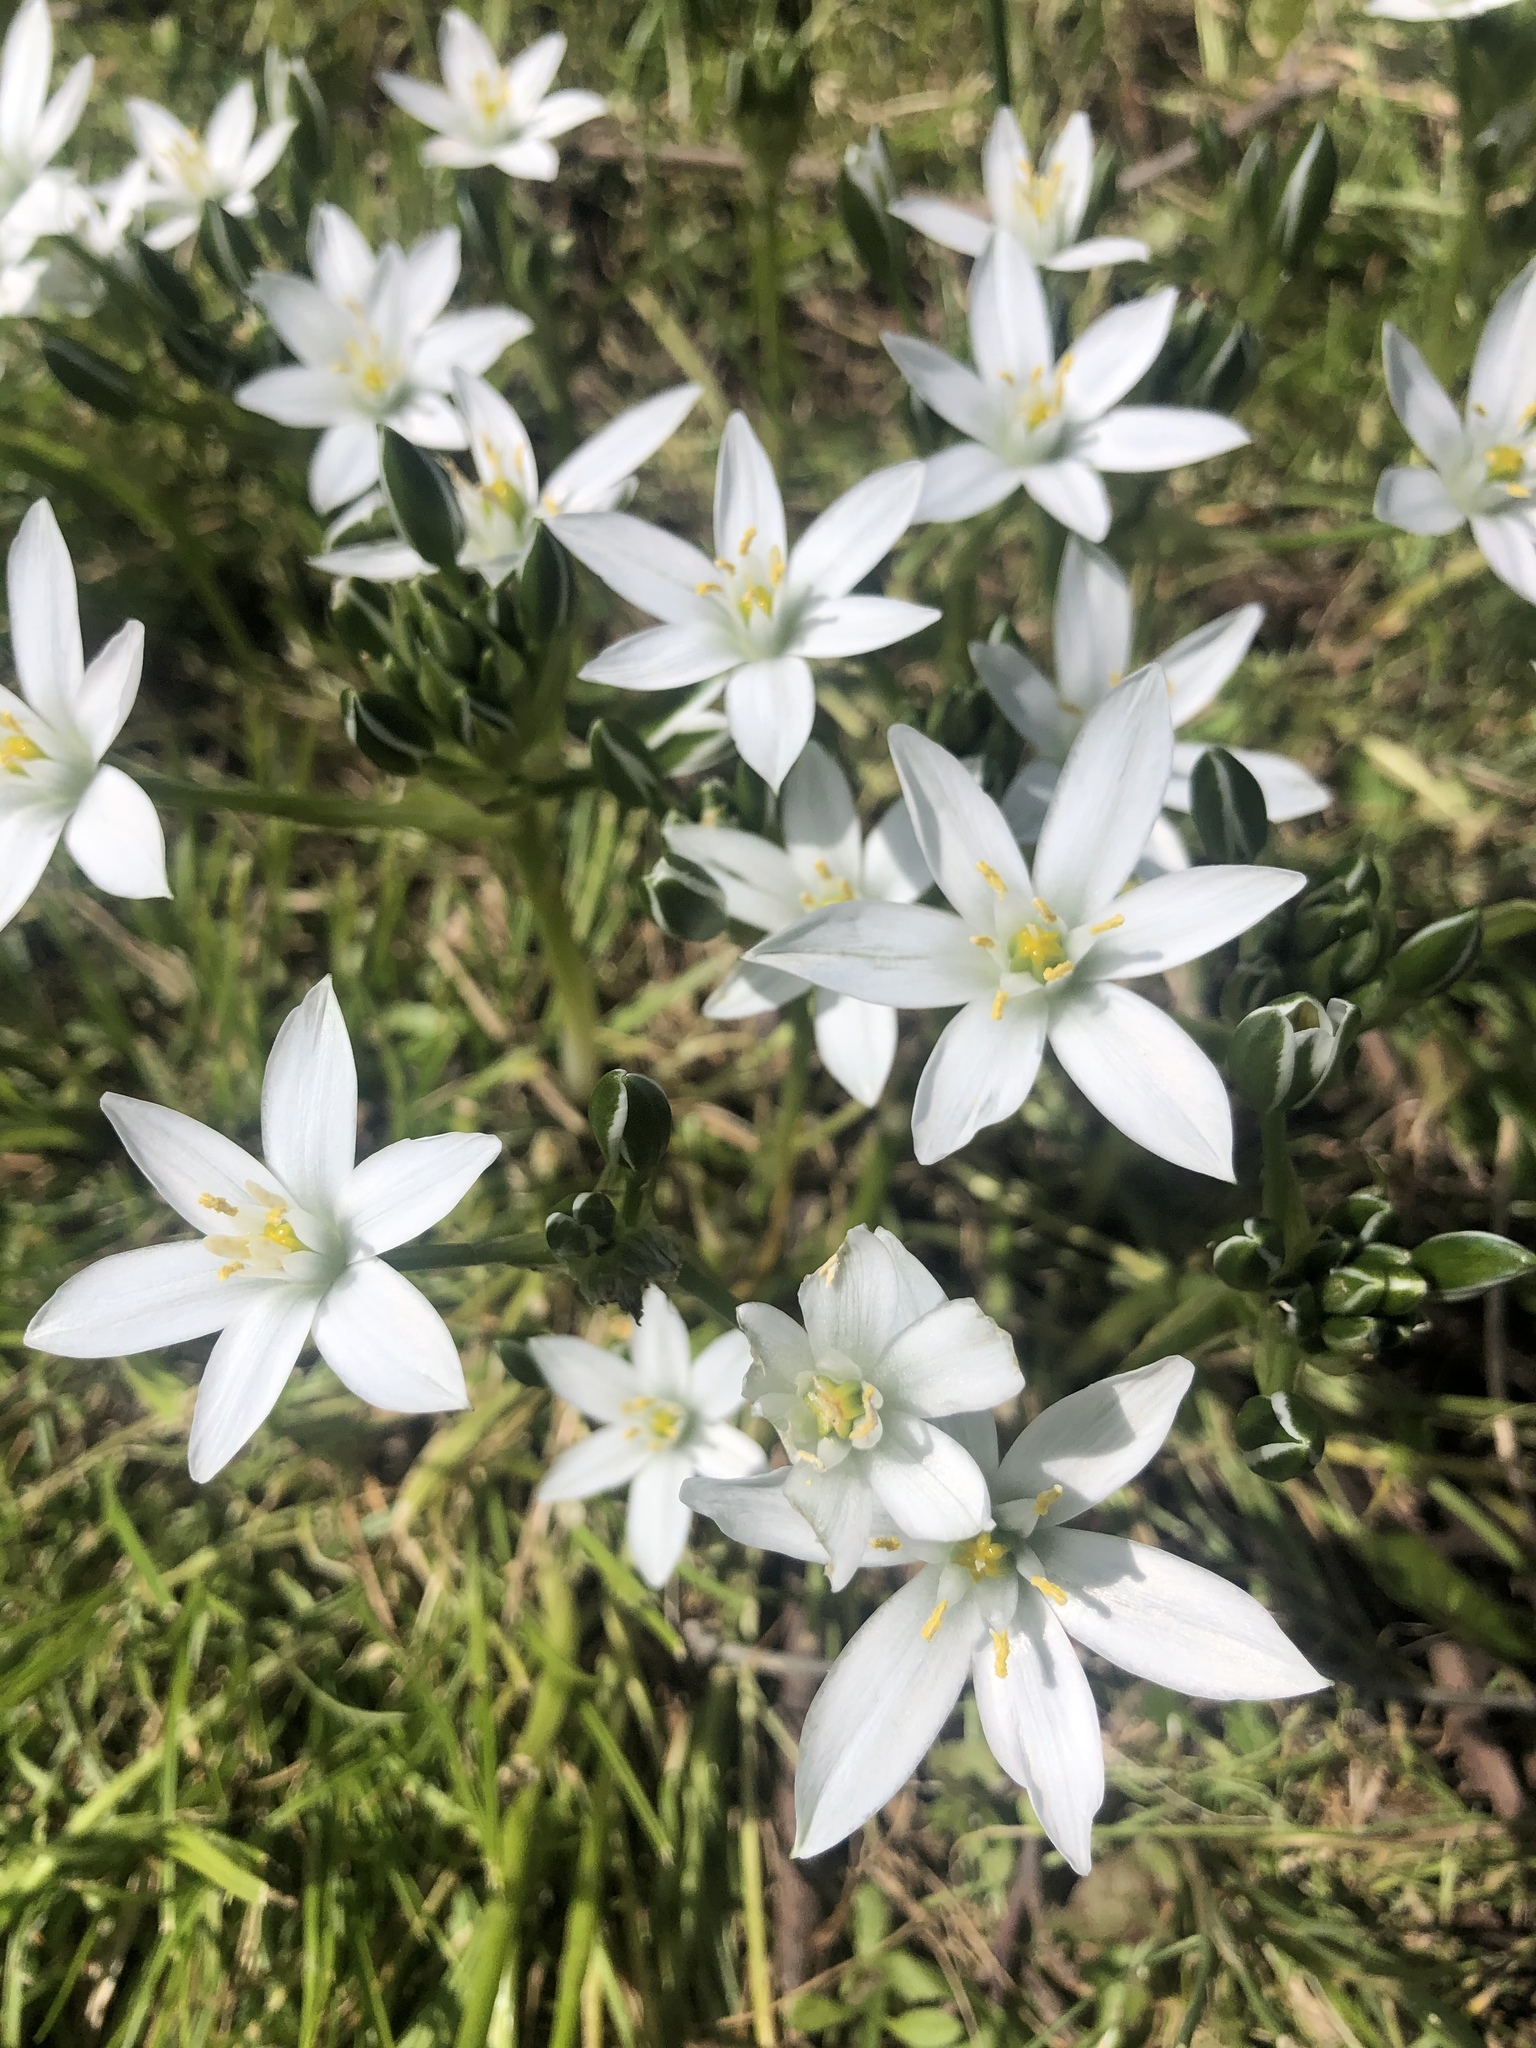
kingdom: Plantae
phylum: Tracheophyta
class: Liliopsida
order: Asparagales
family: Asparagaceae
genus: Ornithogalum
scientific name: Ornithogalum umbellatum
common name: Garden star-of-bethlehem
